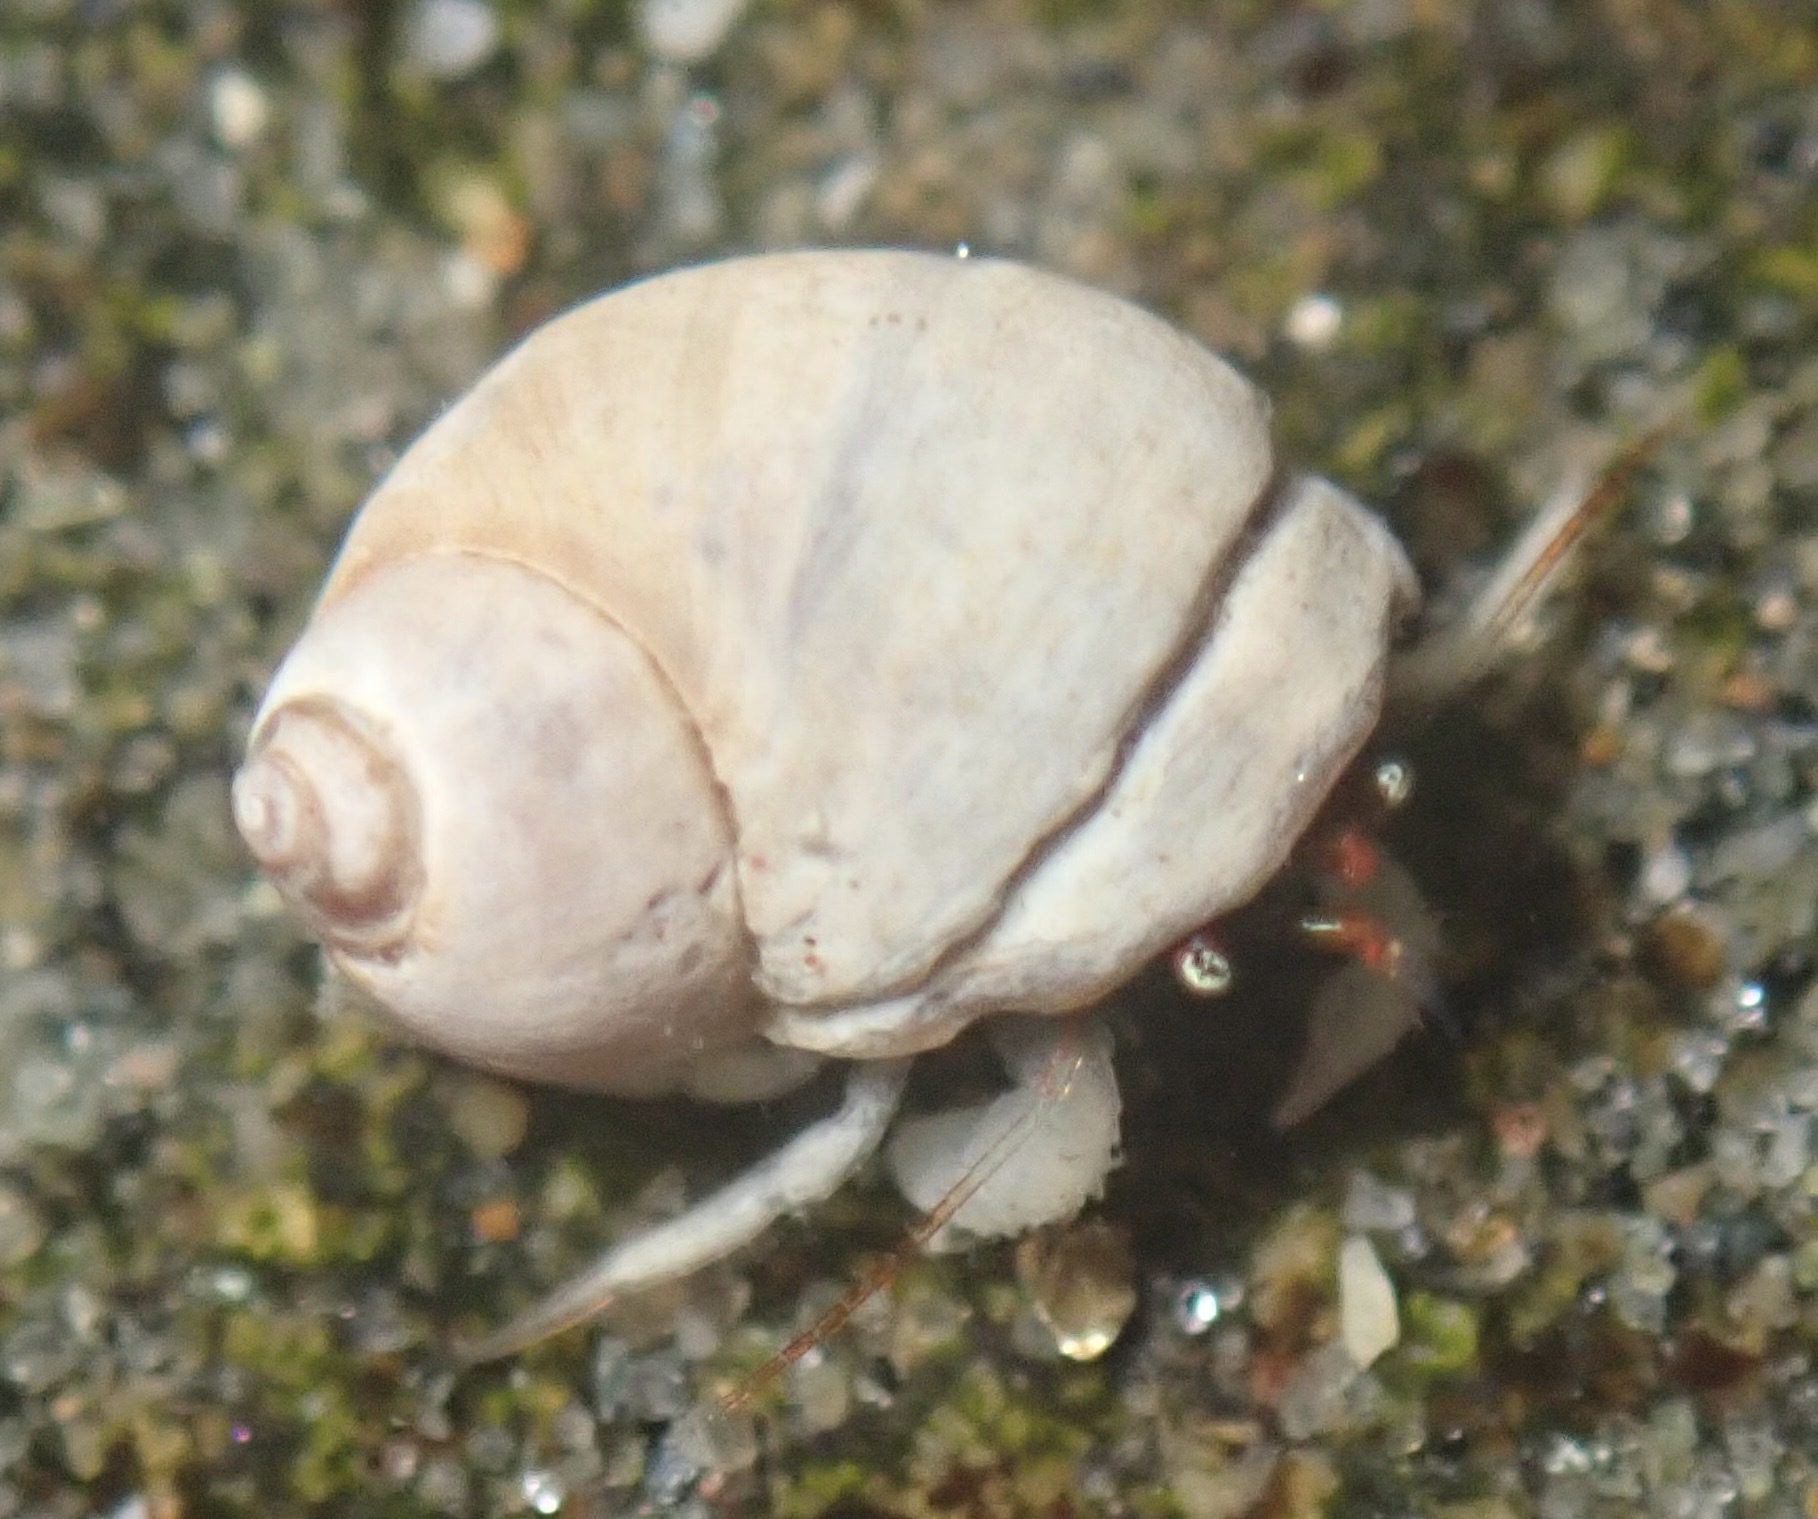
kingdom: Animalia
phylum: Arthropoda
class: Malacostraca
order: Decapoda
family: Paguridae
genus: Pagurus
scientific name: Pagurus granosimanus
